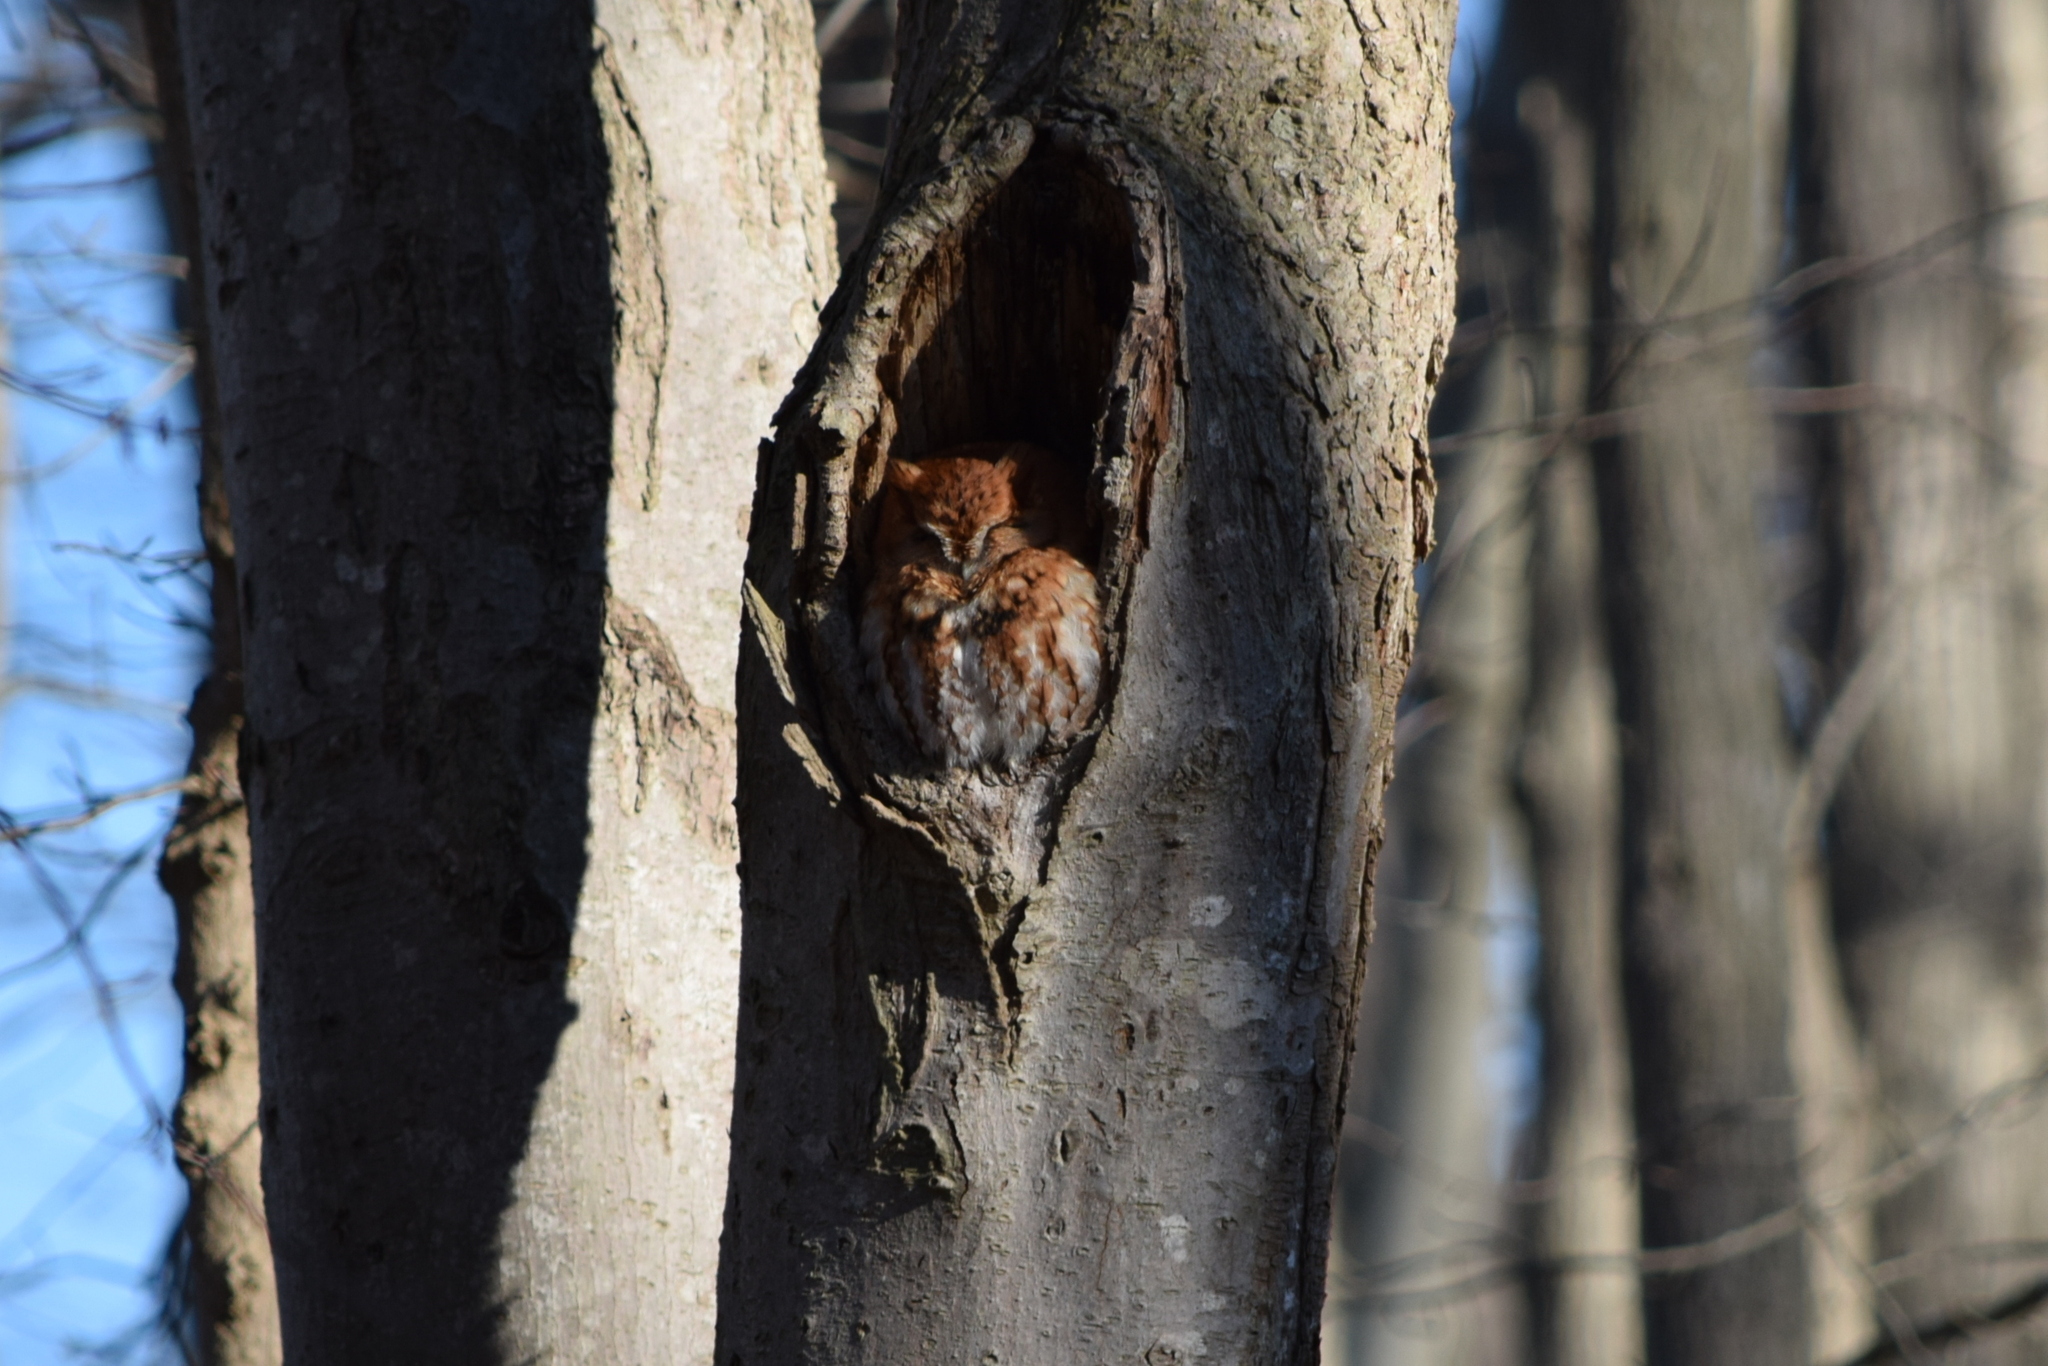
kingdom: Animalia
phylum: Chordata
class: Aves
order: Strigiformes
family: Strigidae
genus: Megascops
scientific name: Megascops asio
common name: Eastern screech-owl
